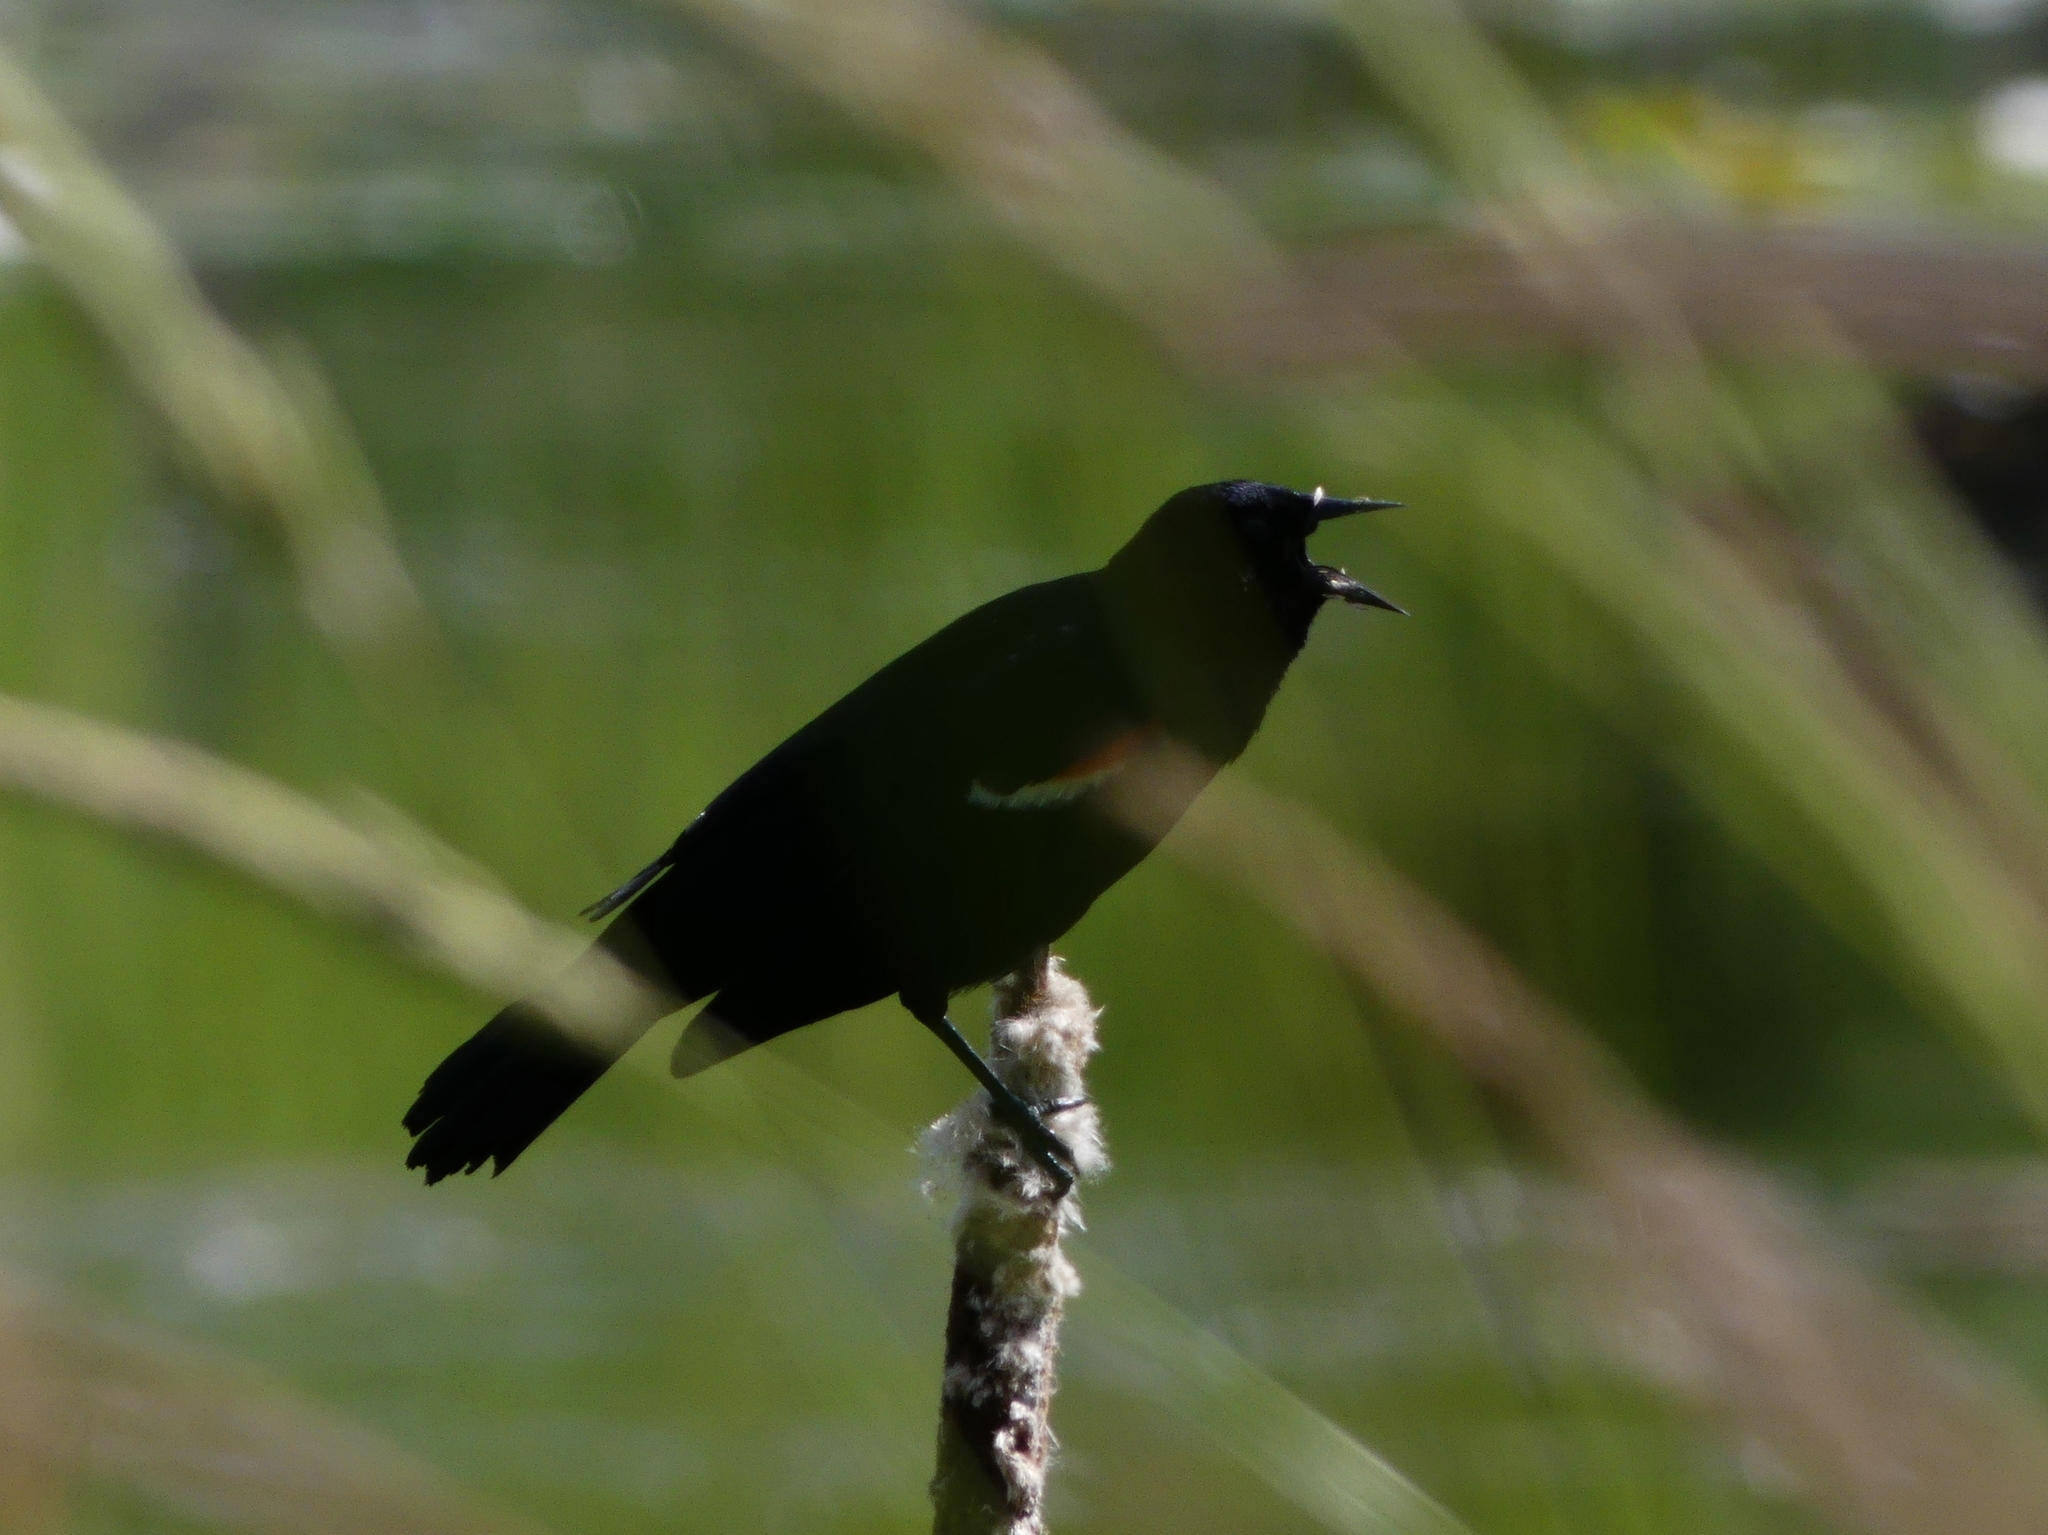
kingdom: Animalia
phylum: Chordata
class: Aves
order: Passeriformes
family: Icteridae
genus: Agelaius
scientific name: Agelaius phoeniceus
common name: Red-winged blackbird
